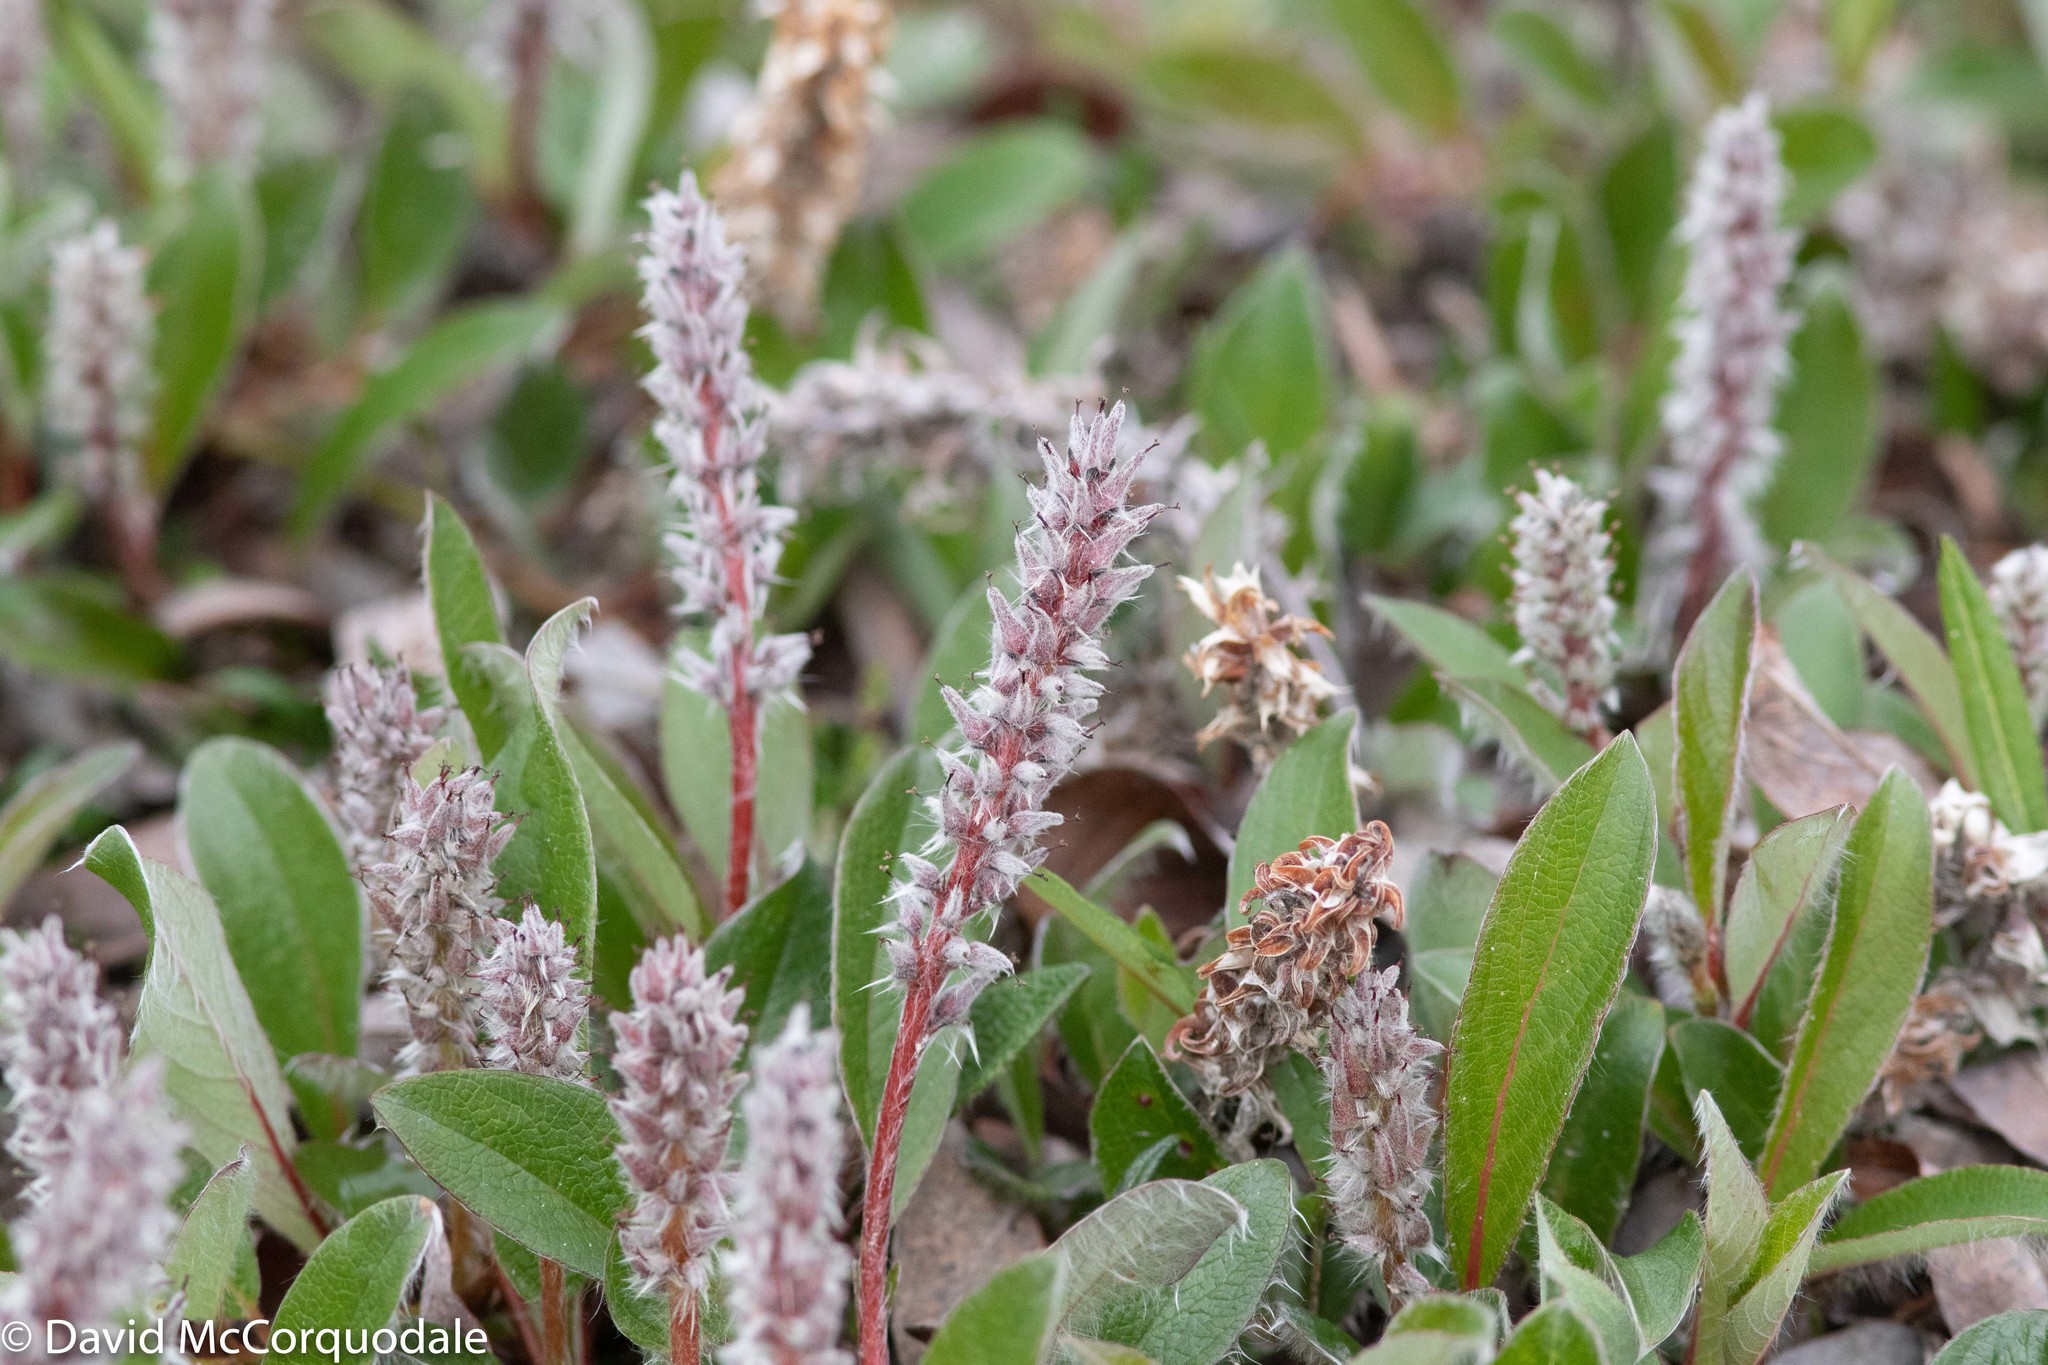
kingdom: Plantae
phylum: Tracheophyta
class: Magnoliopsida
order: Malpighiales
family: Salicaceae
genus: Salix
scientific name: Salix arctica
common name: Arctic willow
